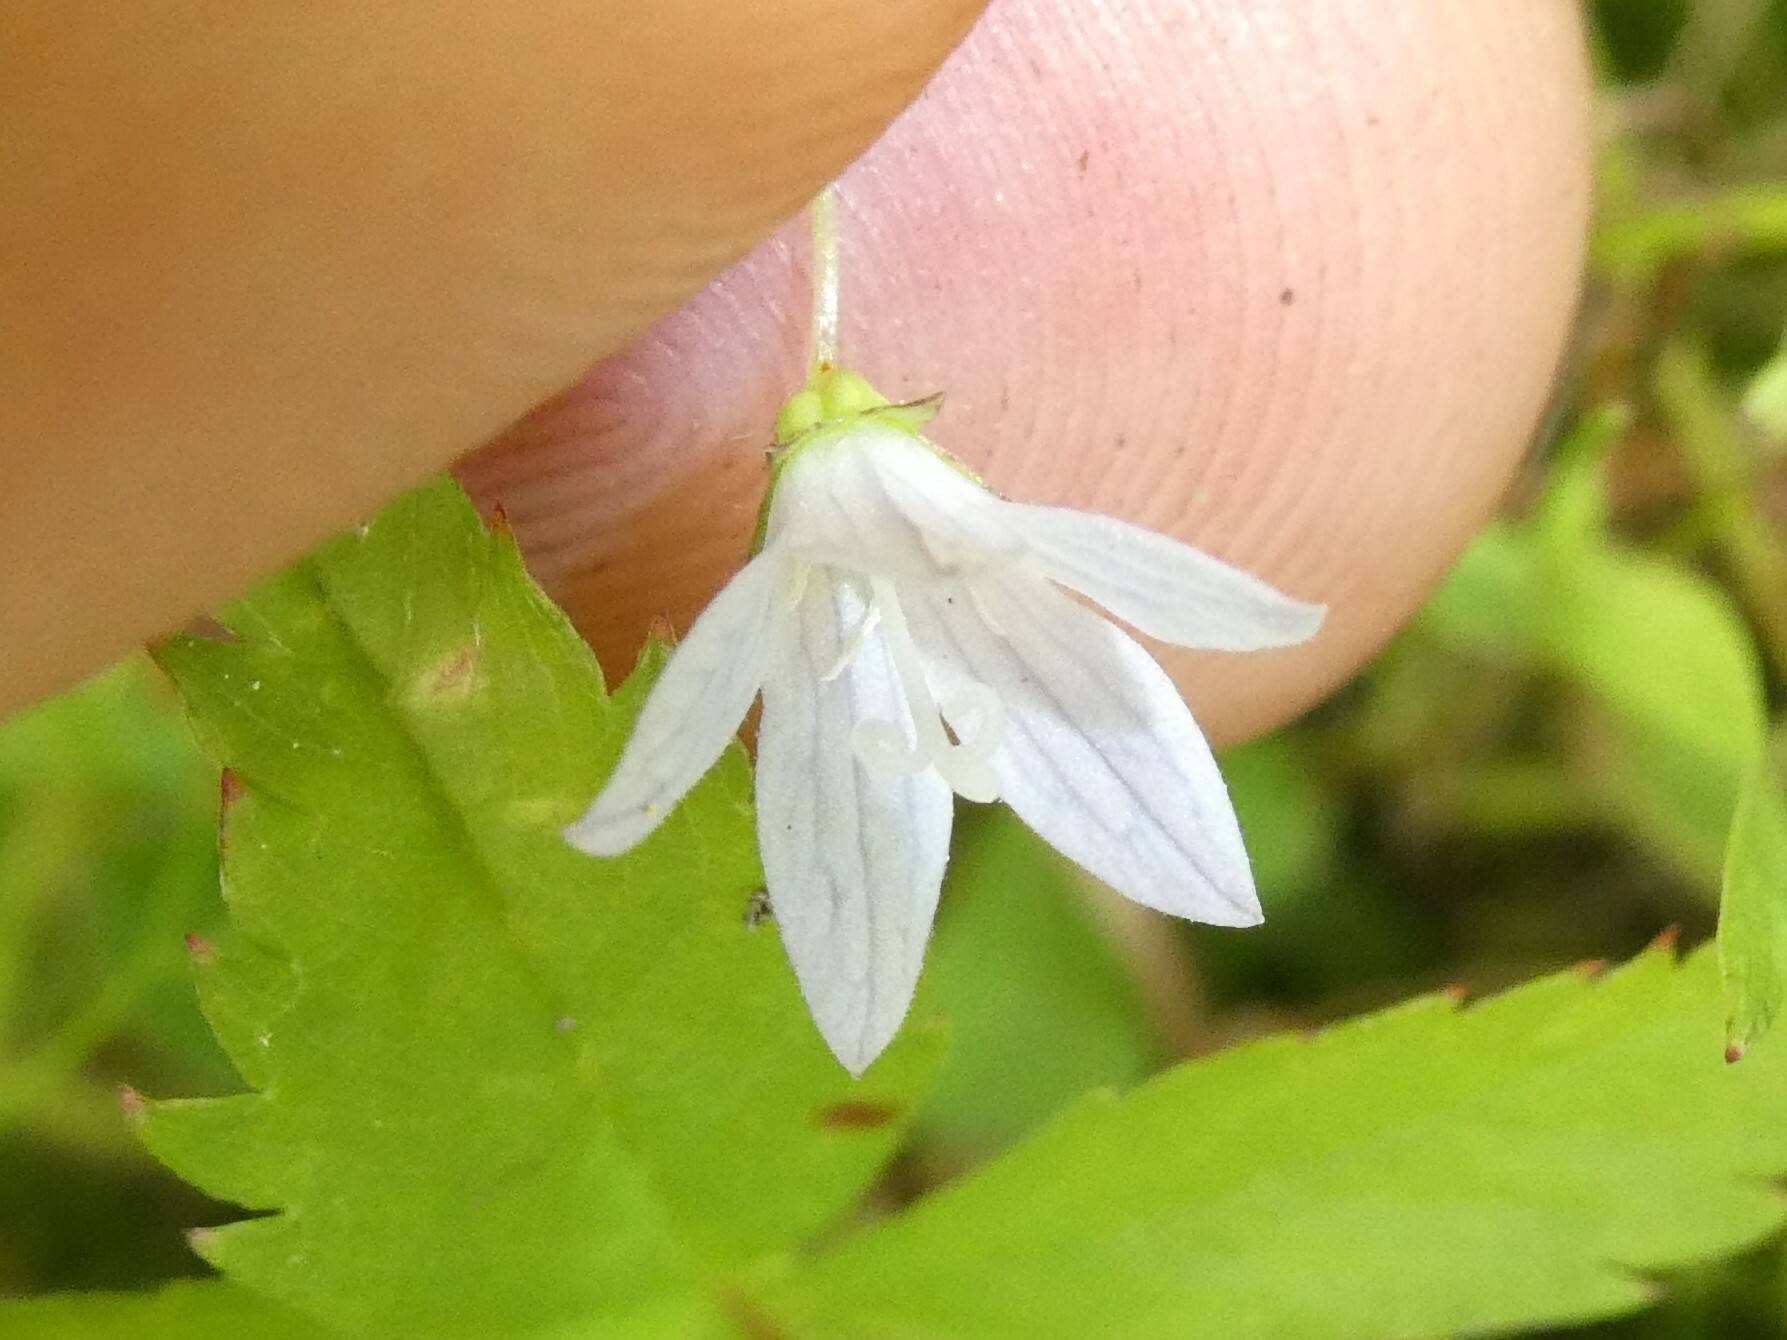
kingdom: Plantae
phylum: Tracheophyta
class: Magnoliopsida
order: Asterales
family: Campanulaceae
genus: Palustricodon
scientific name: Palustricodon aparinoides
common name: Bedstraw bellflower
